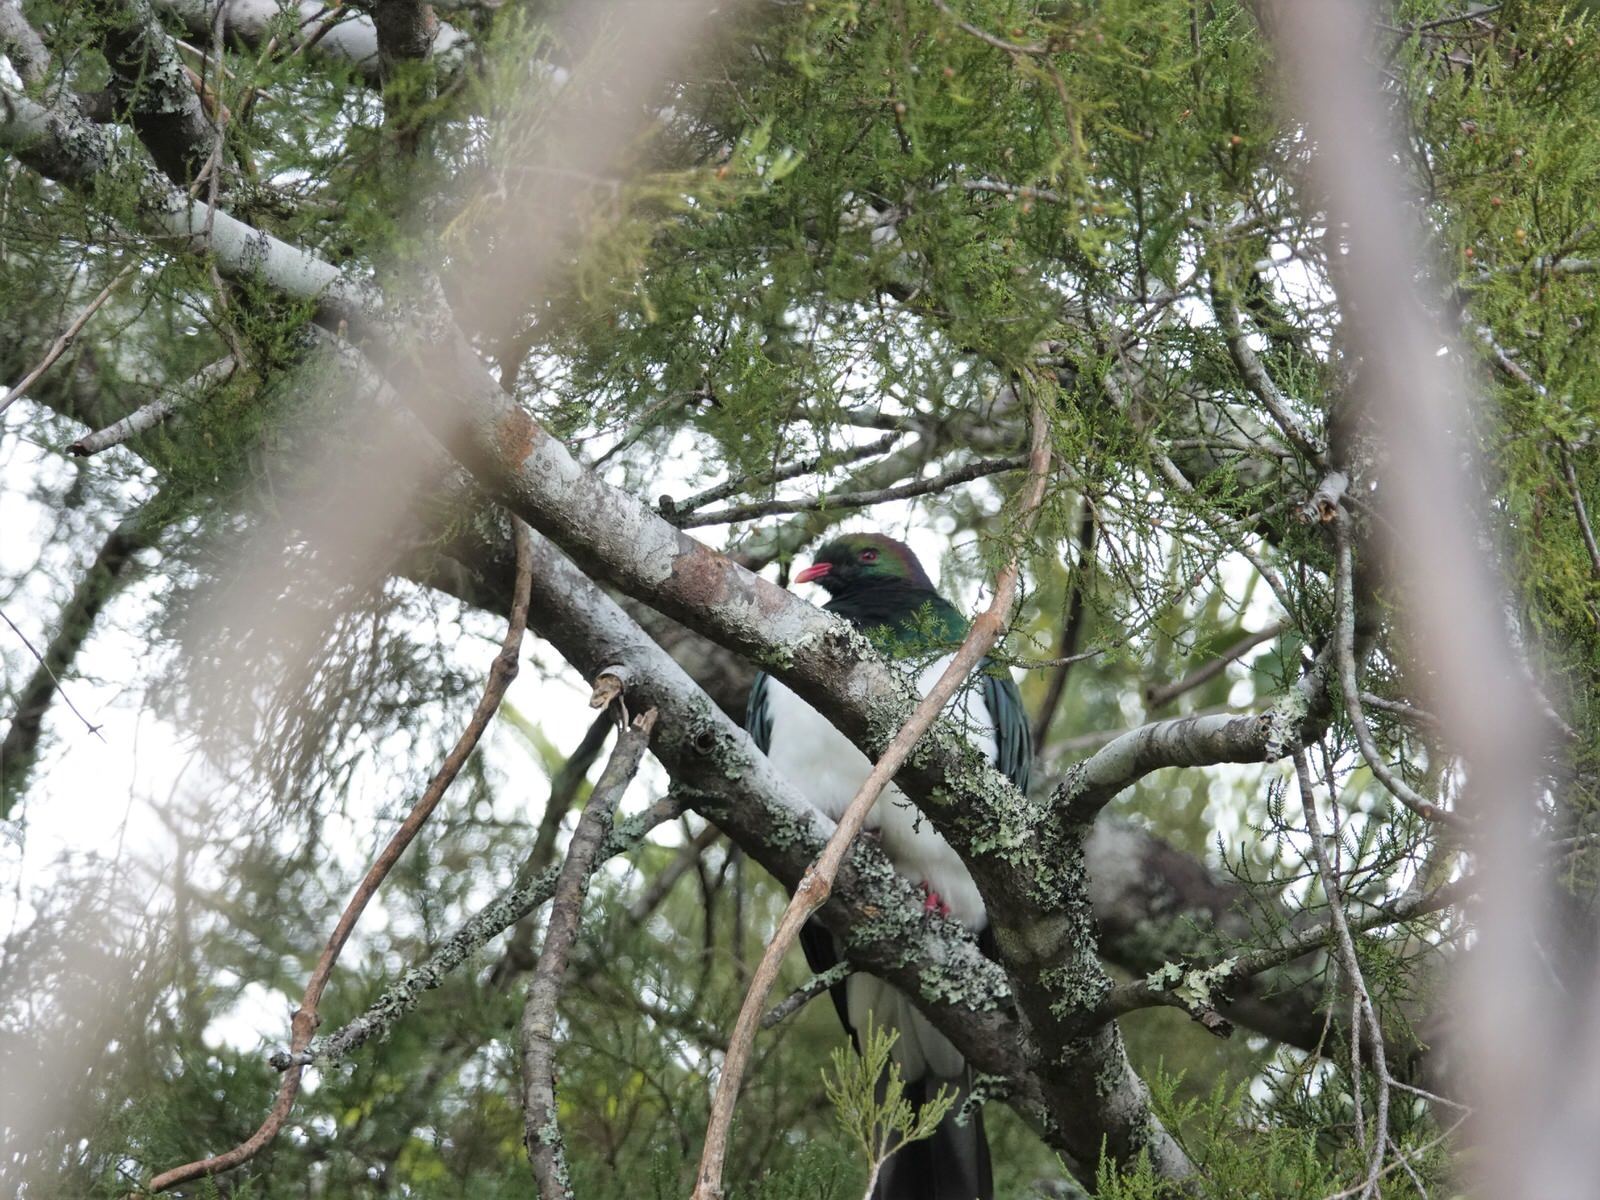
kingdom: Animalia
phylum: Chordata
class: Aves
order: Columbiformes
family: Columbidae
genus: Hemiphaga
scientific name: Hemiphaga novaeseelandiae
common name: New zealand pigeon
